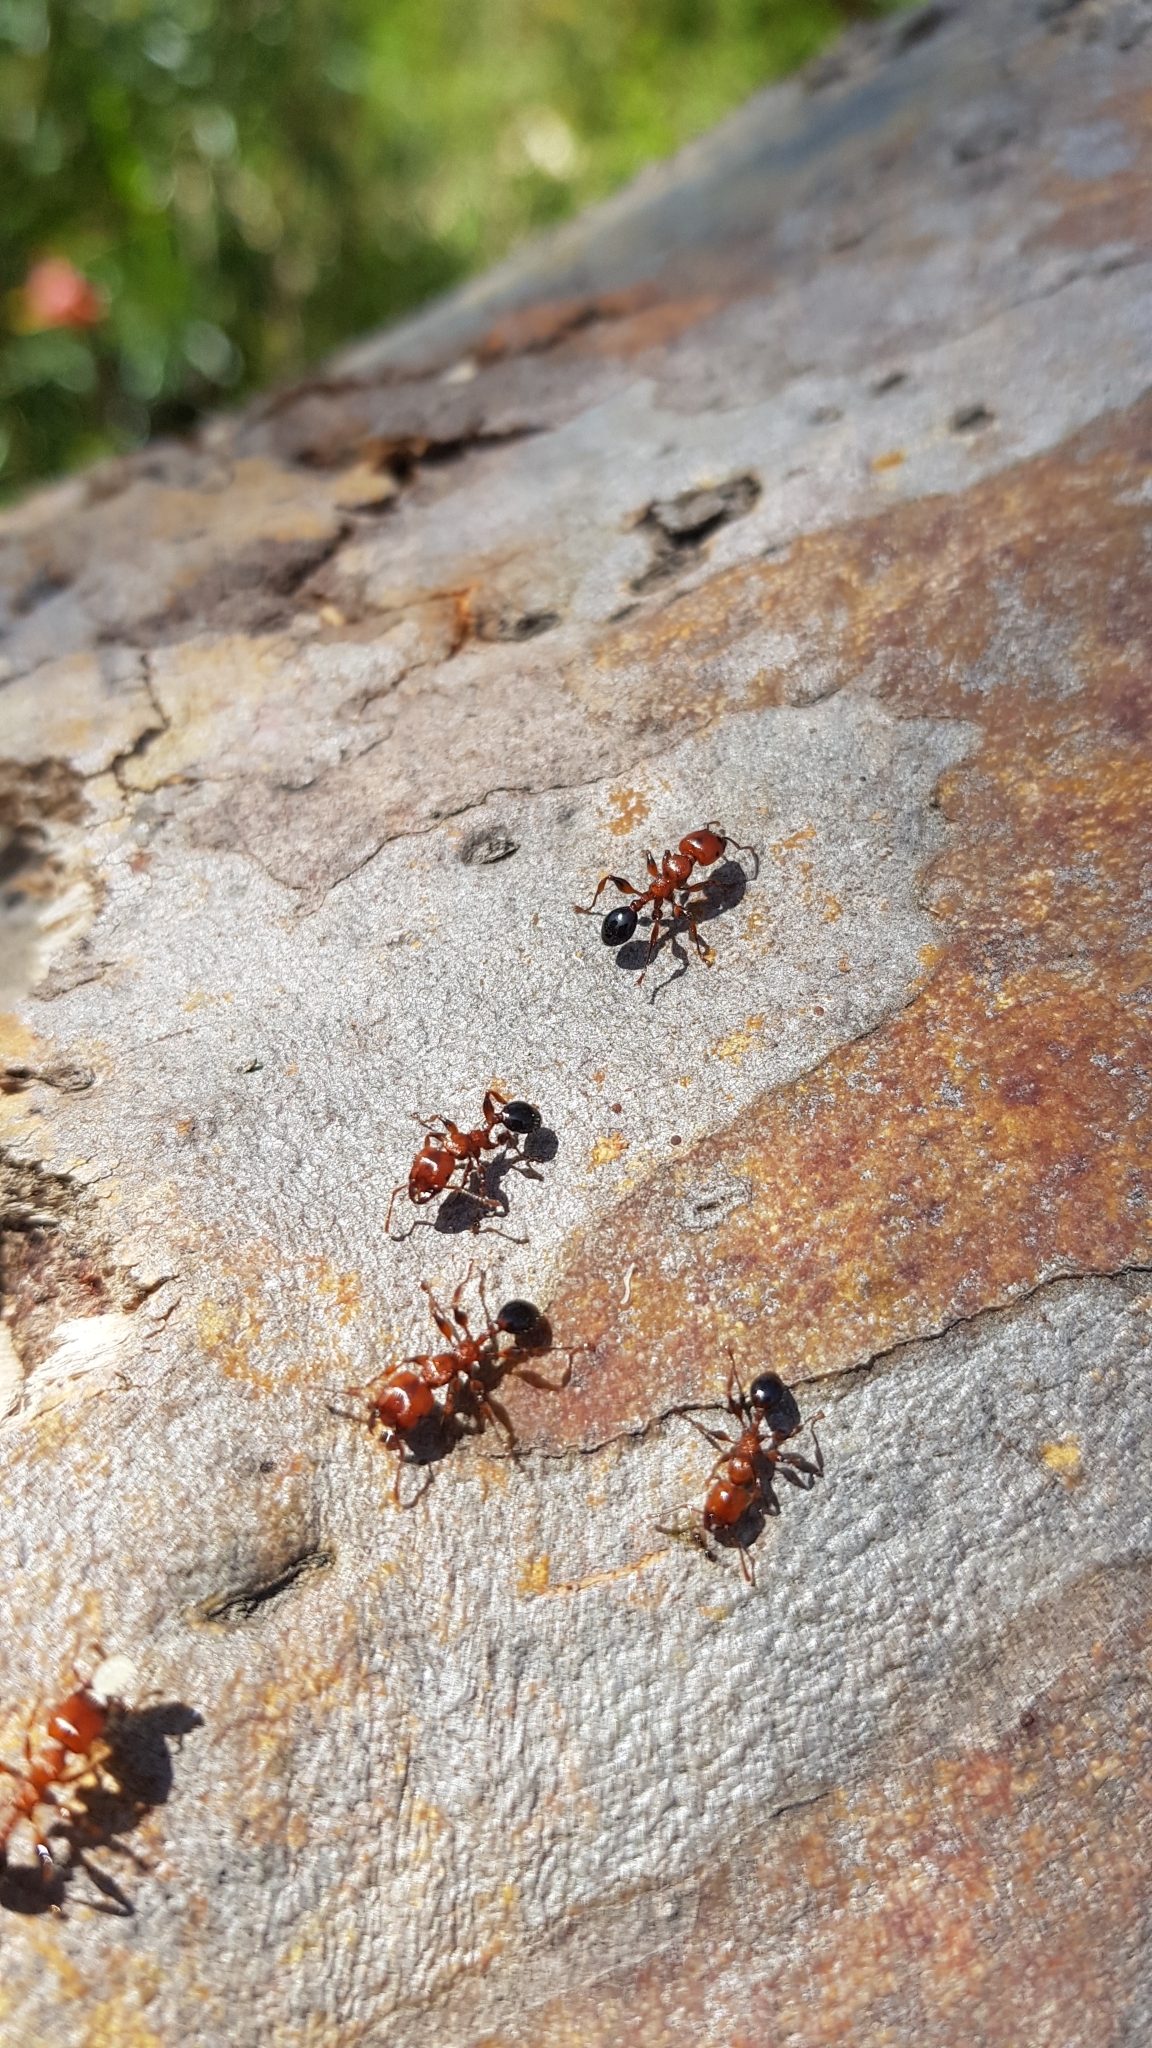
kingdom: Animalia
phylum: Arthropoda
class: Insecta
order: Hymenoptera
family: Formicidae
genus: Podomyrma
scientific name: Podomyrma gratiosa
